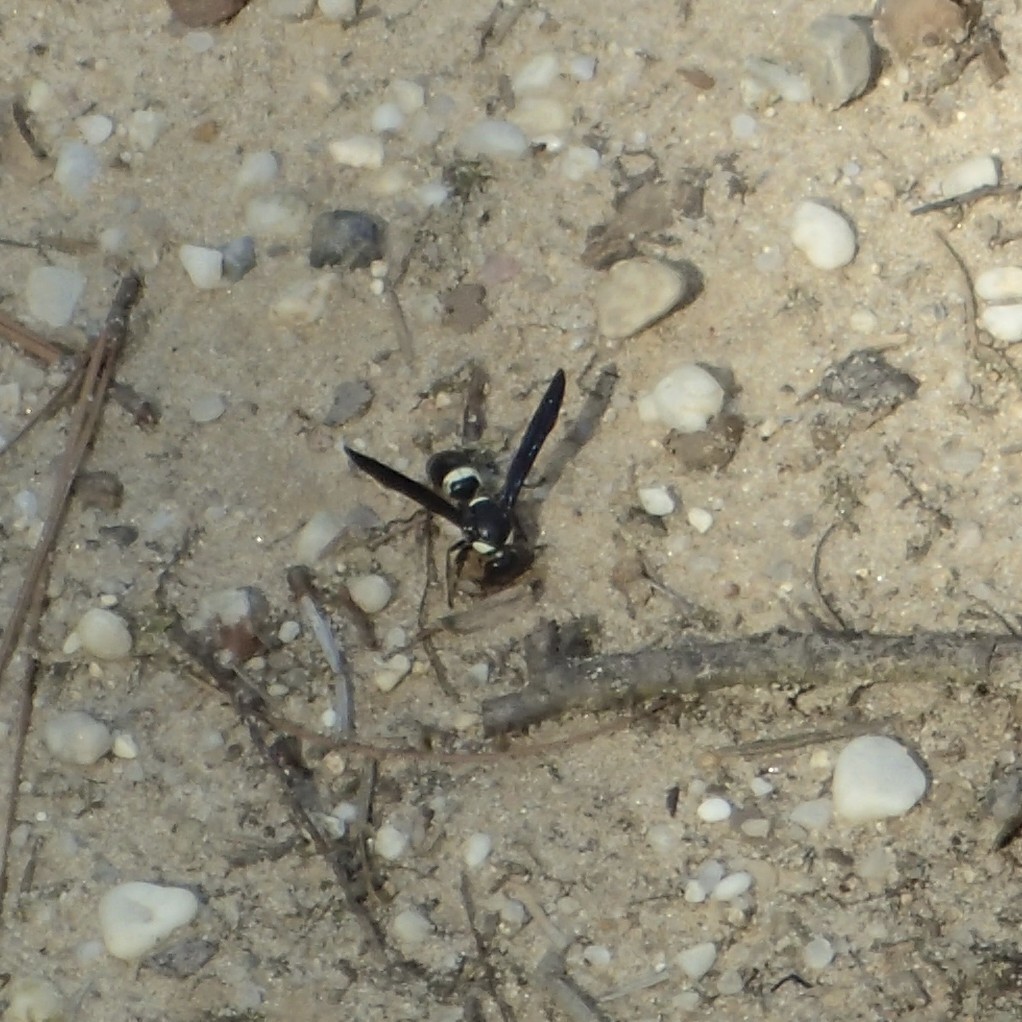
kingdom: Animalia
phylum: Arthropoda
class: Insecta
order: Hymenoptera
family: Eumenidae
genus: Monobia
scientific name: Monobia quadridens
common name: Four-toothed mason wasp
